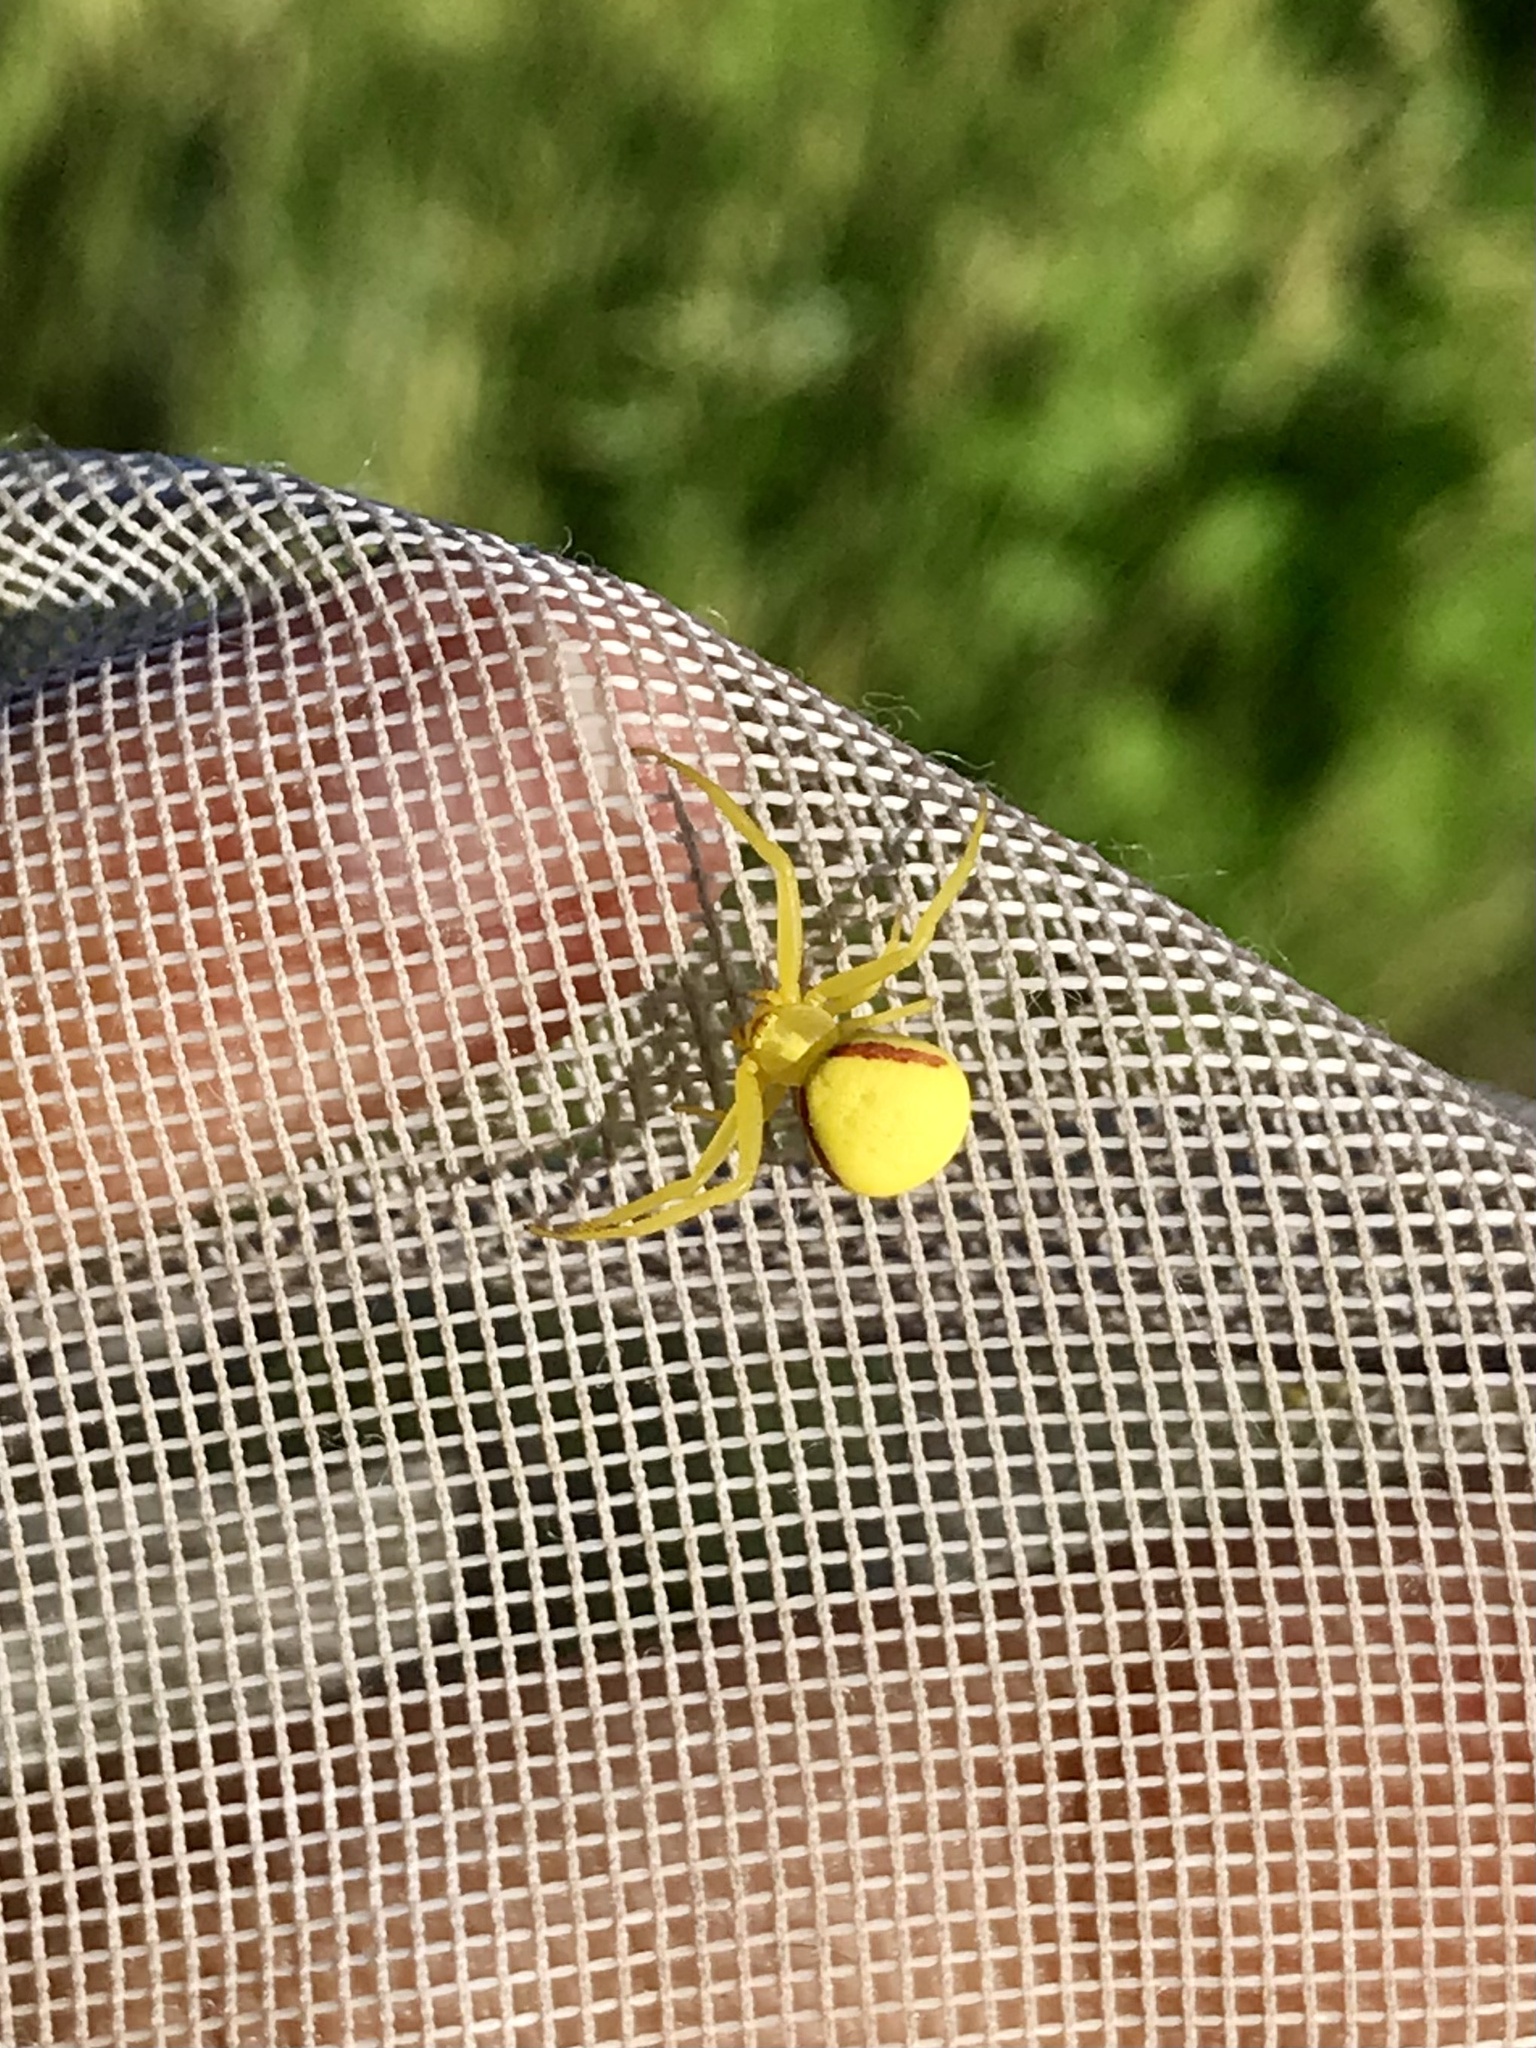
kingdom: Animalia
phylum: Arthropoda
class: Arachnida
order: Araneae
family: Thomisidae
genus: Misumena
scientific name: Misumena vatia
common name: Goldenrod crab spider
